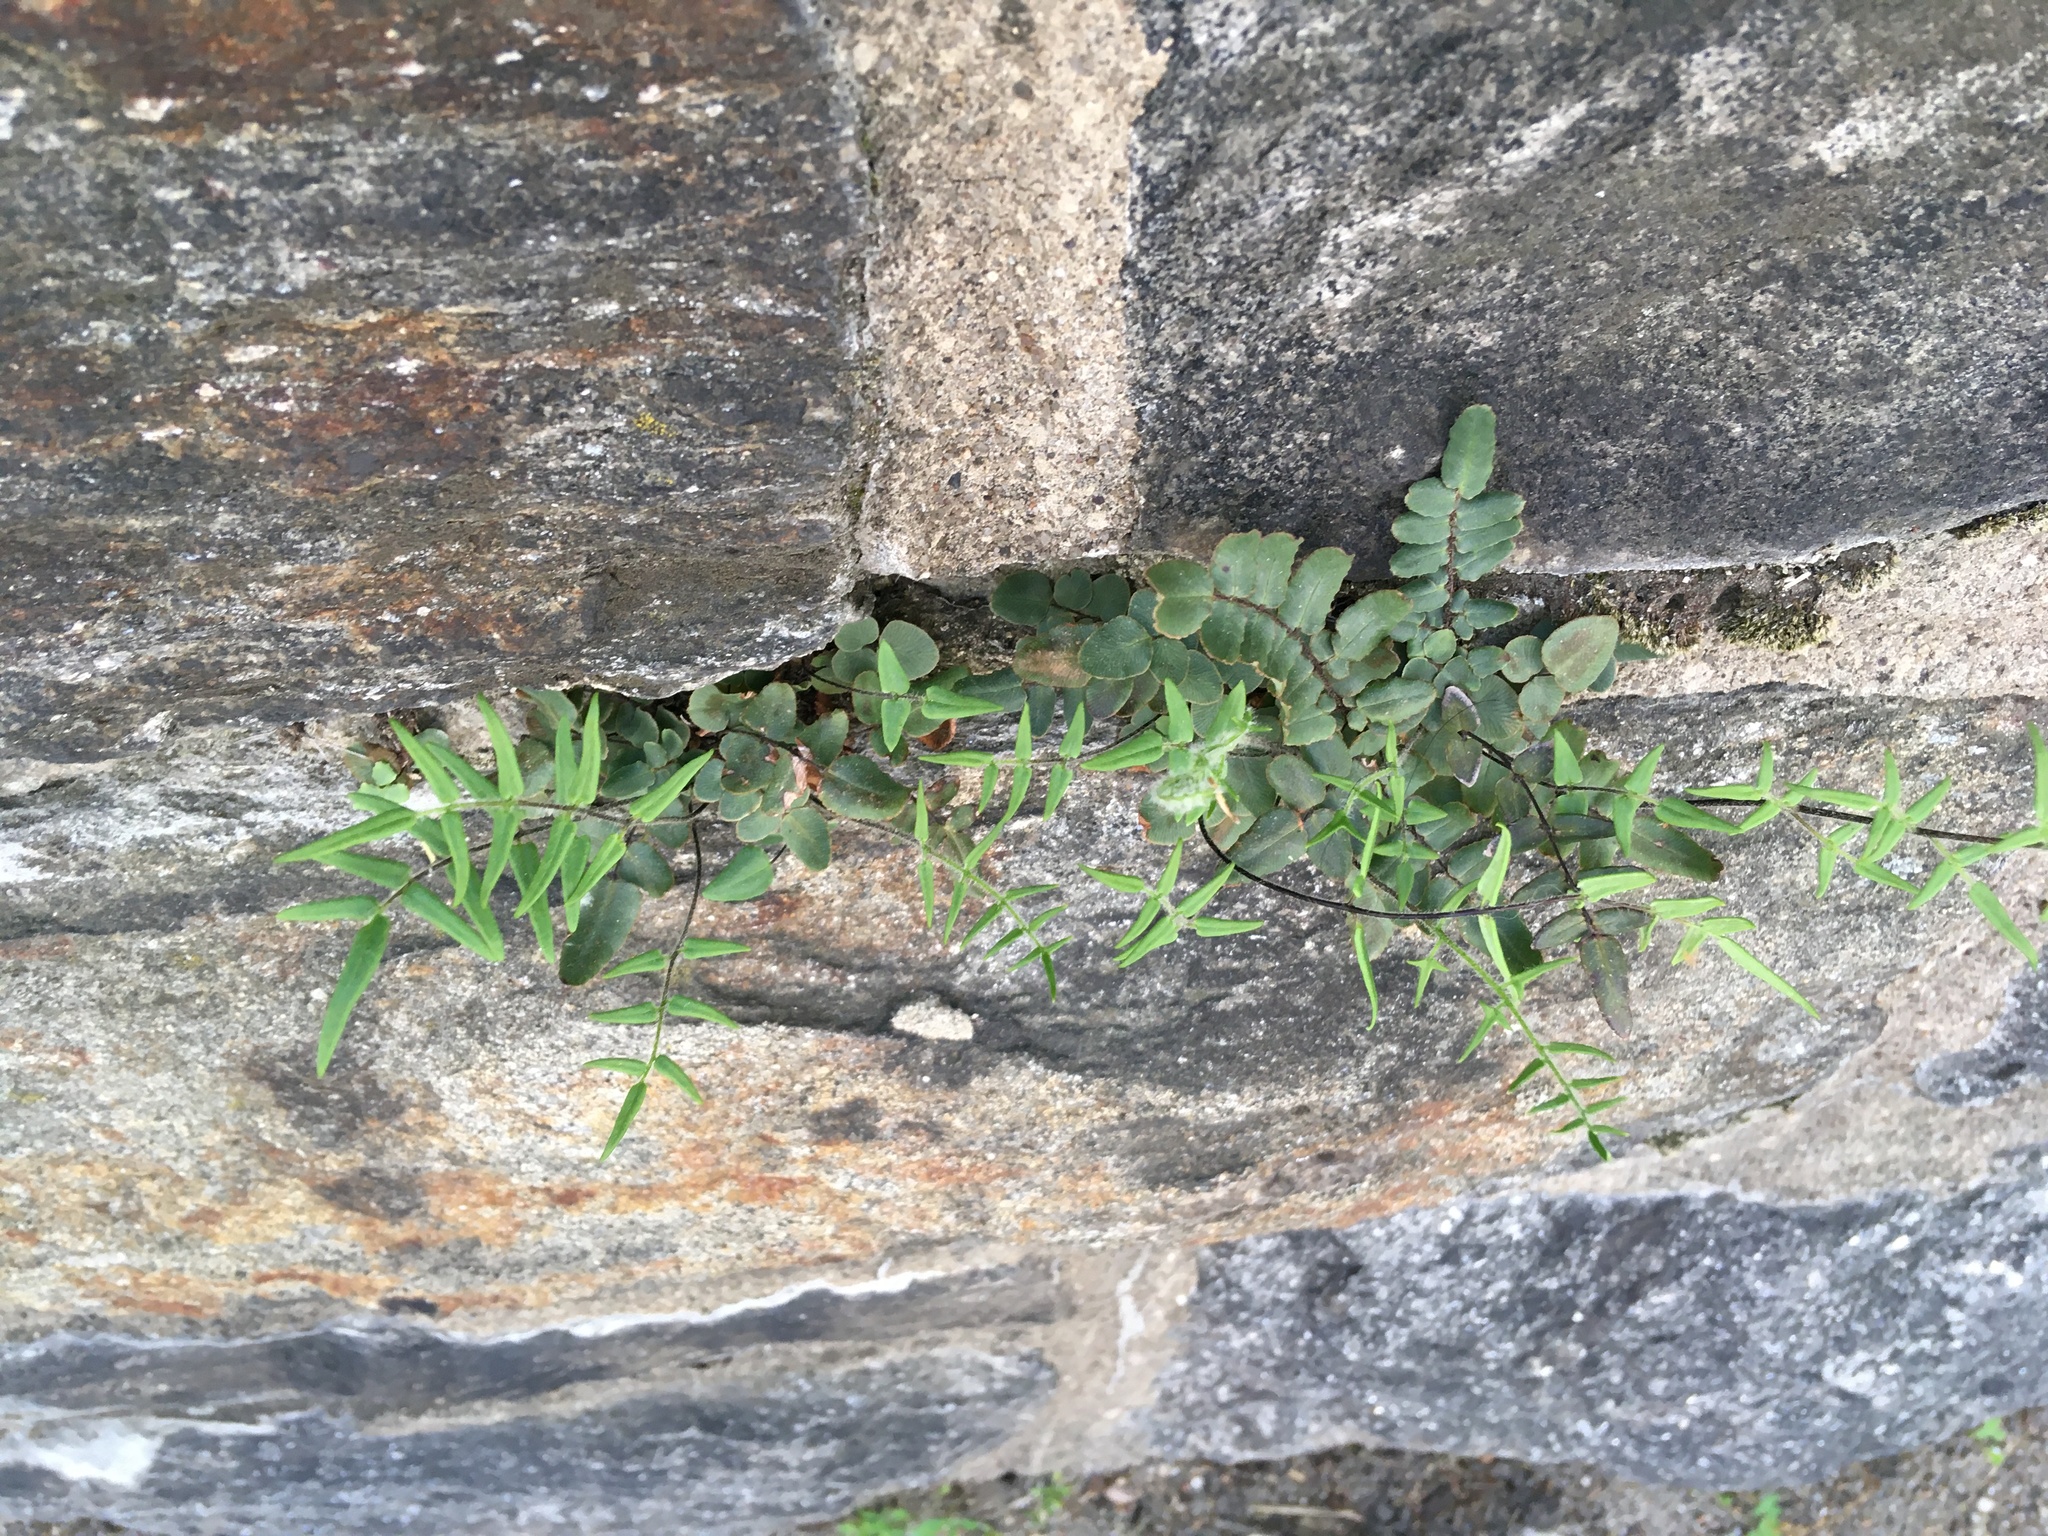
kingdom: Plantae
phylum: Tracheophyta
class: Polypodiopsida
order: Polypodiales
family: Pteridaceae
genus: Pellaea
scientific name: Pellaea atropurpurea
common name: Hairy cliffbrake
